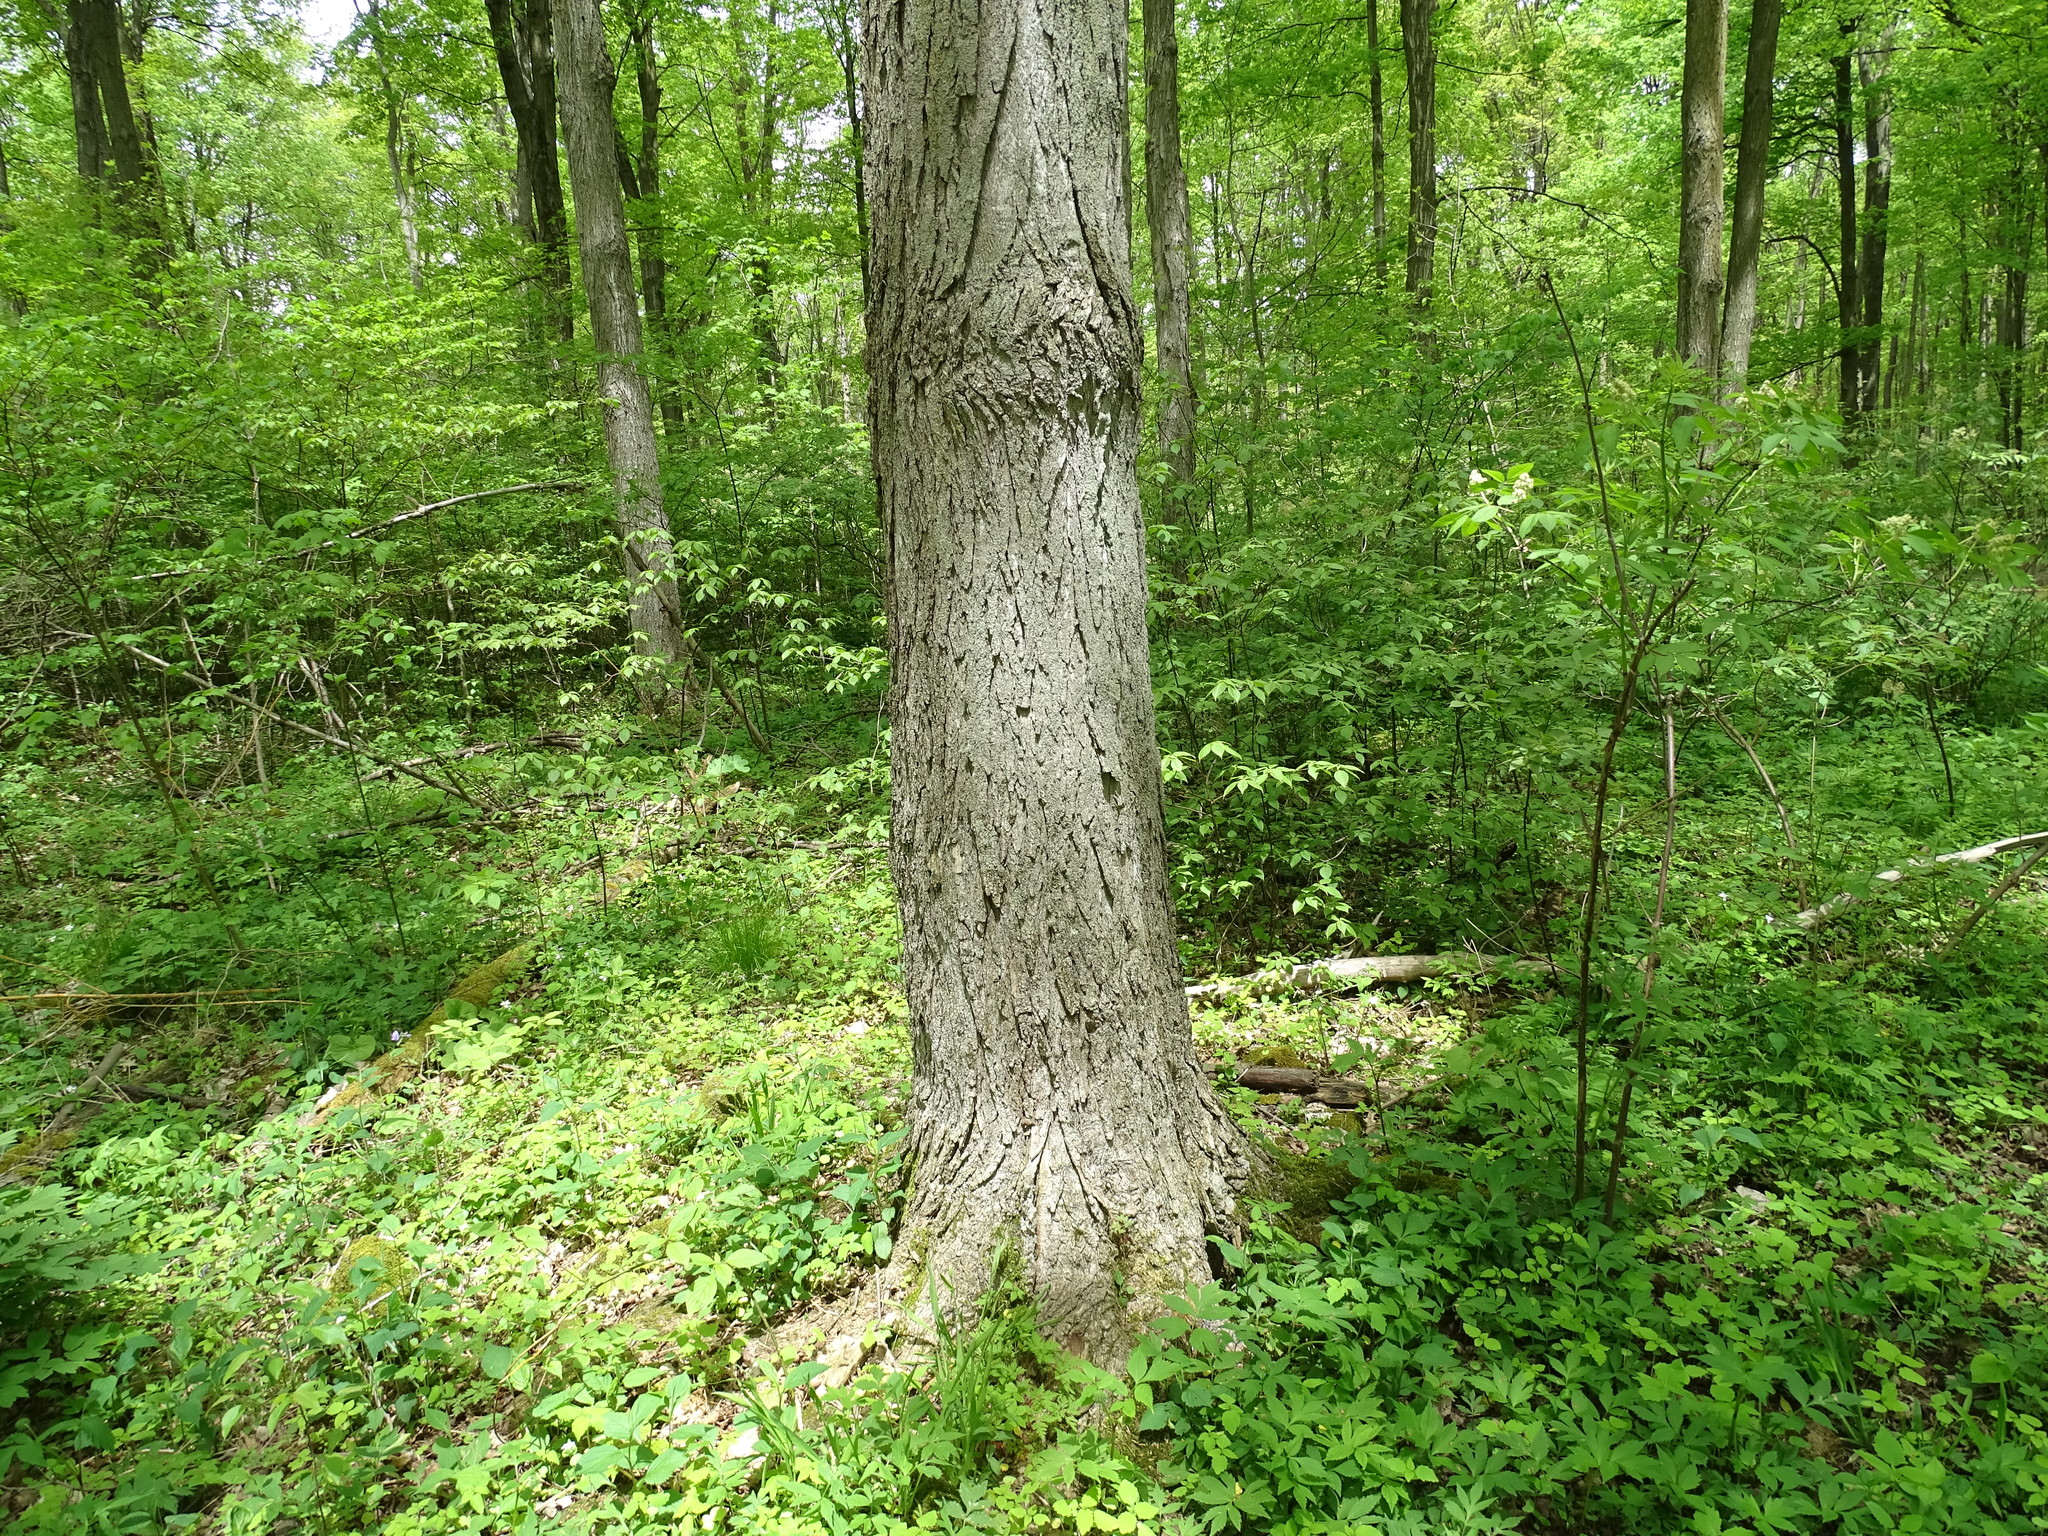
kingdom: Plantae
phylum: Tracheophyta
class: Magnoliopsida
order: Sapindales
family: Sapindaceae
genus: Acer
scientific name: Acer saccharum
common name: Sugar maple
